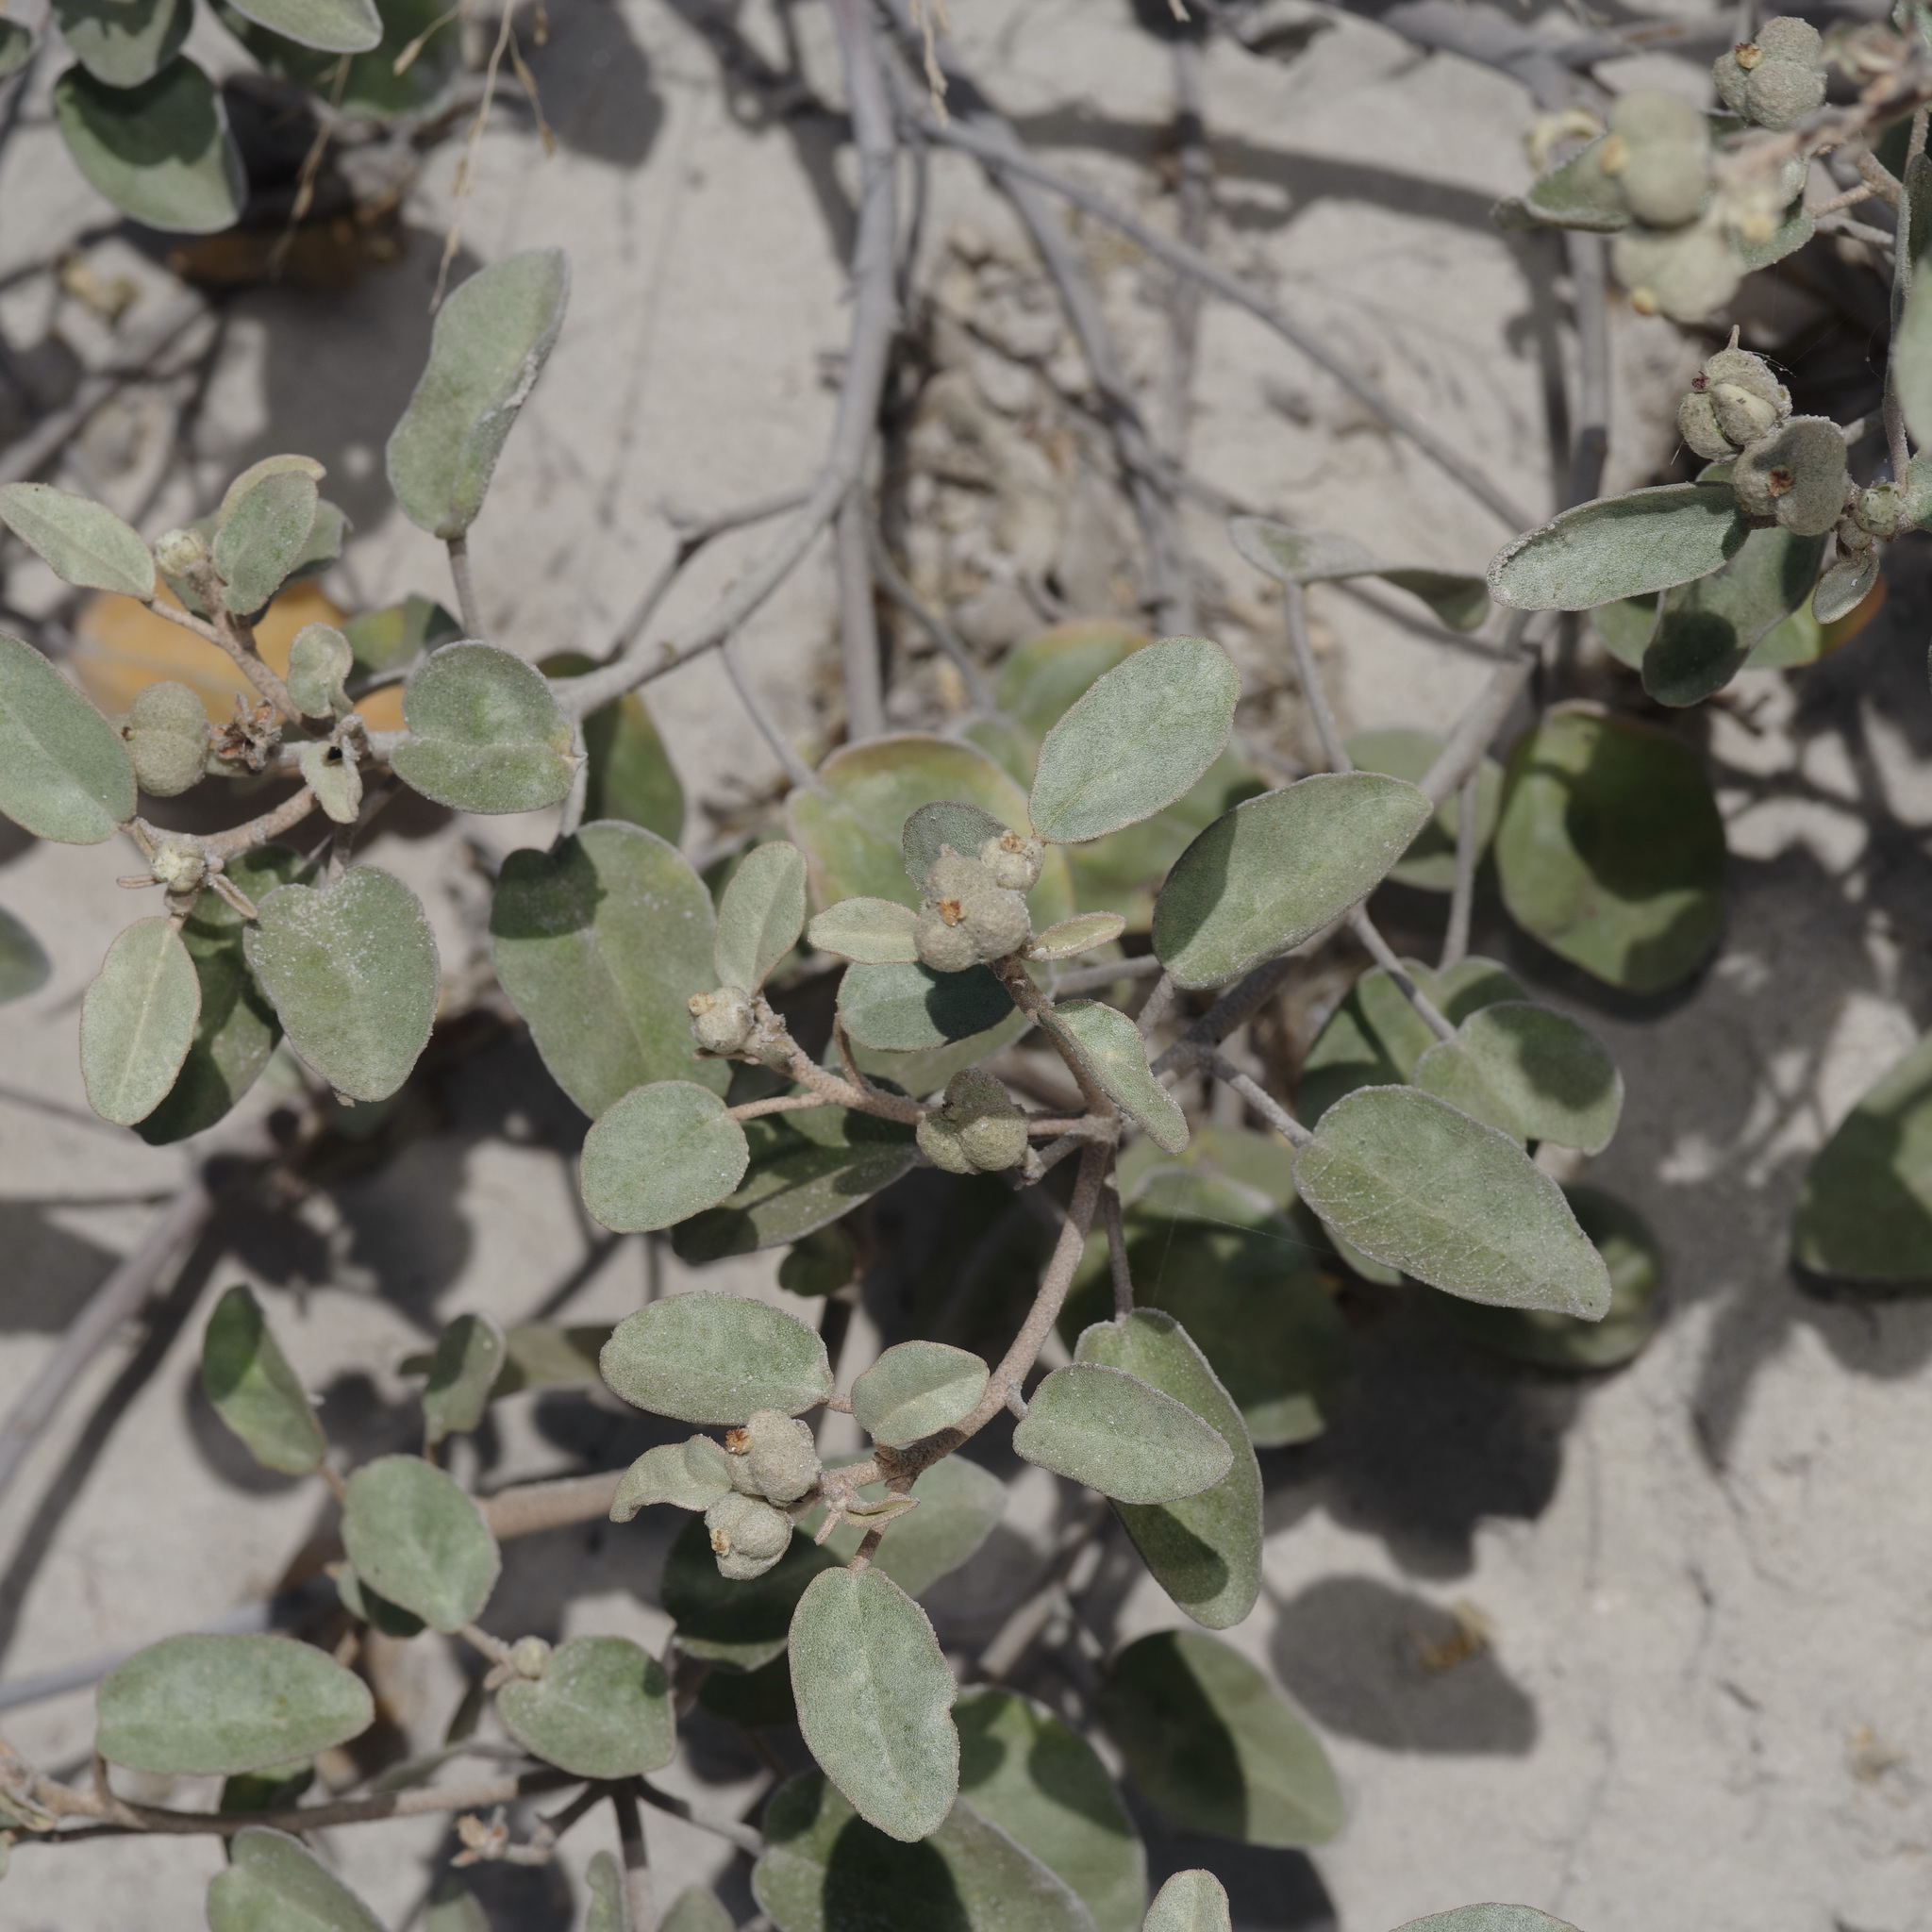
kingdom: Plantae
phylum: Tracheophyta
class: Magnoliopsida
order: Malpighiales
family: Euphorbiaceae
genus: Croton
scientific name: Croton punctatus
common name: Beach-tea
